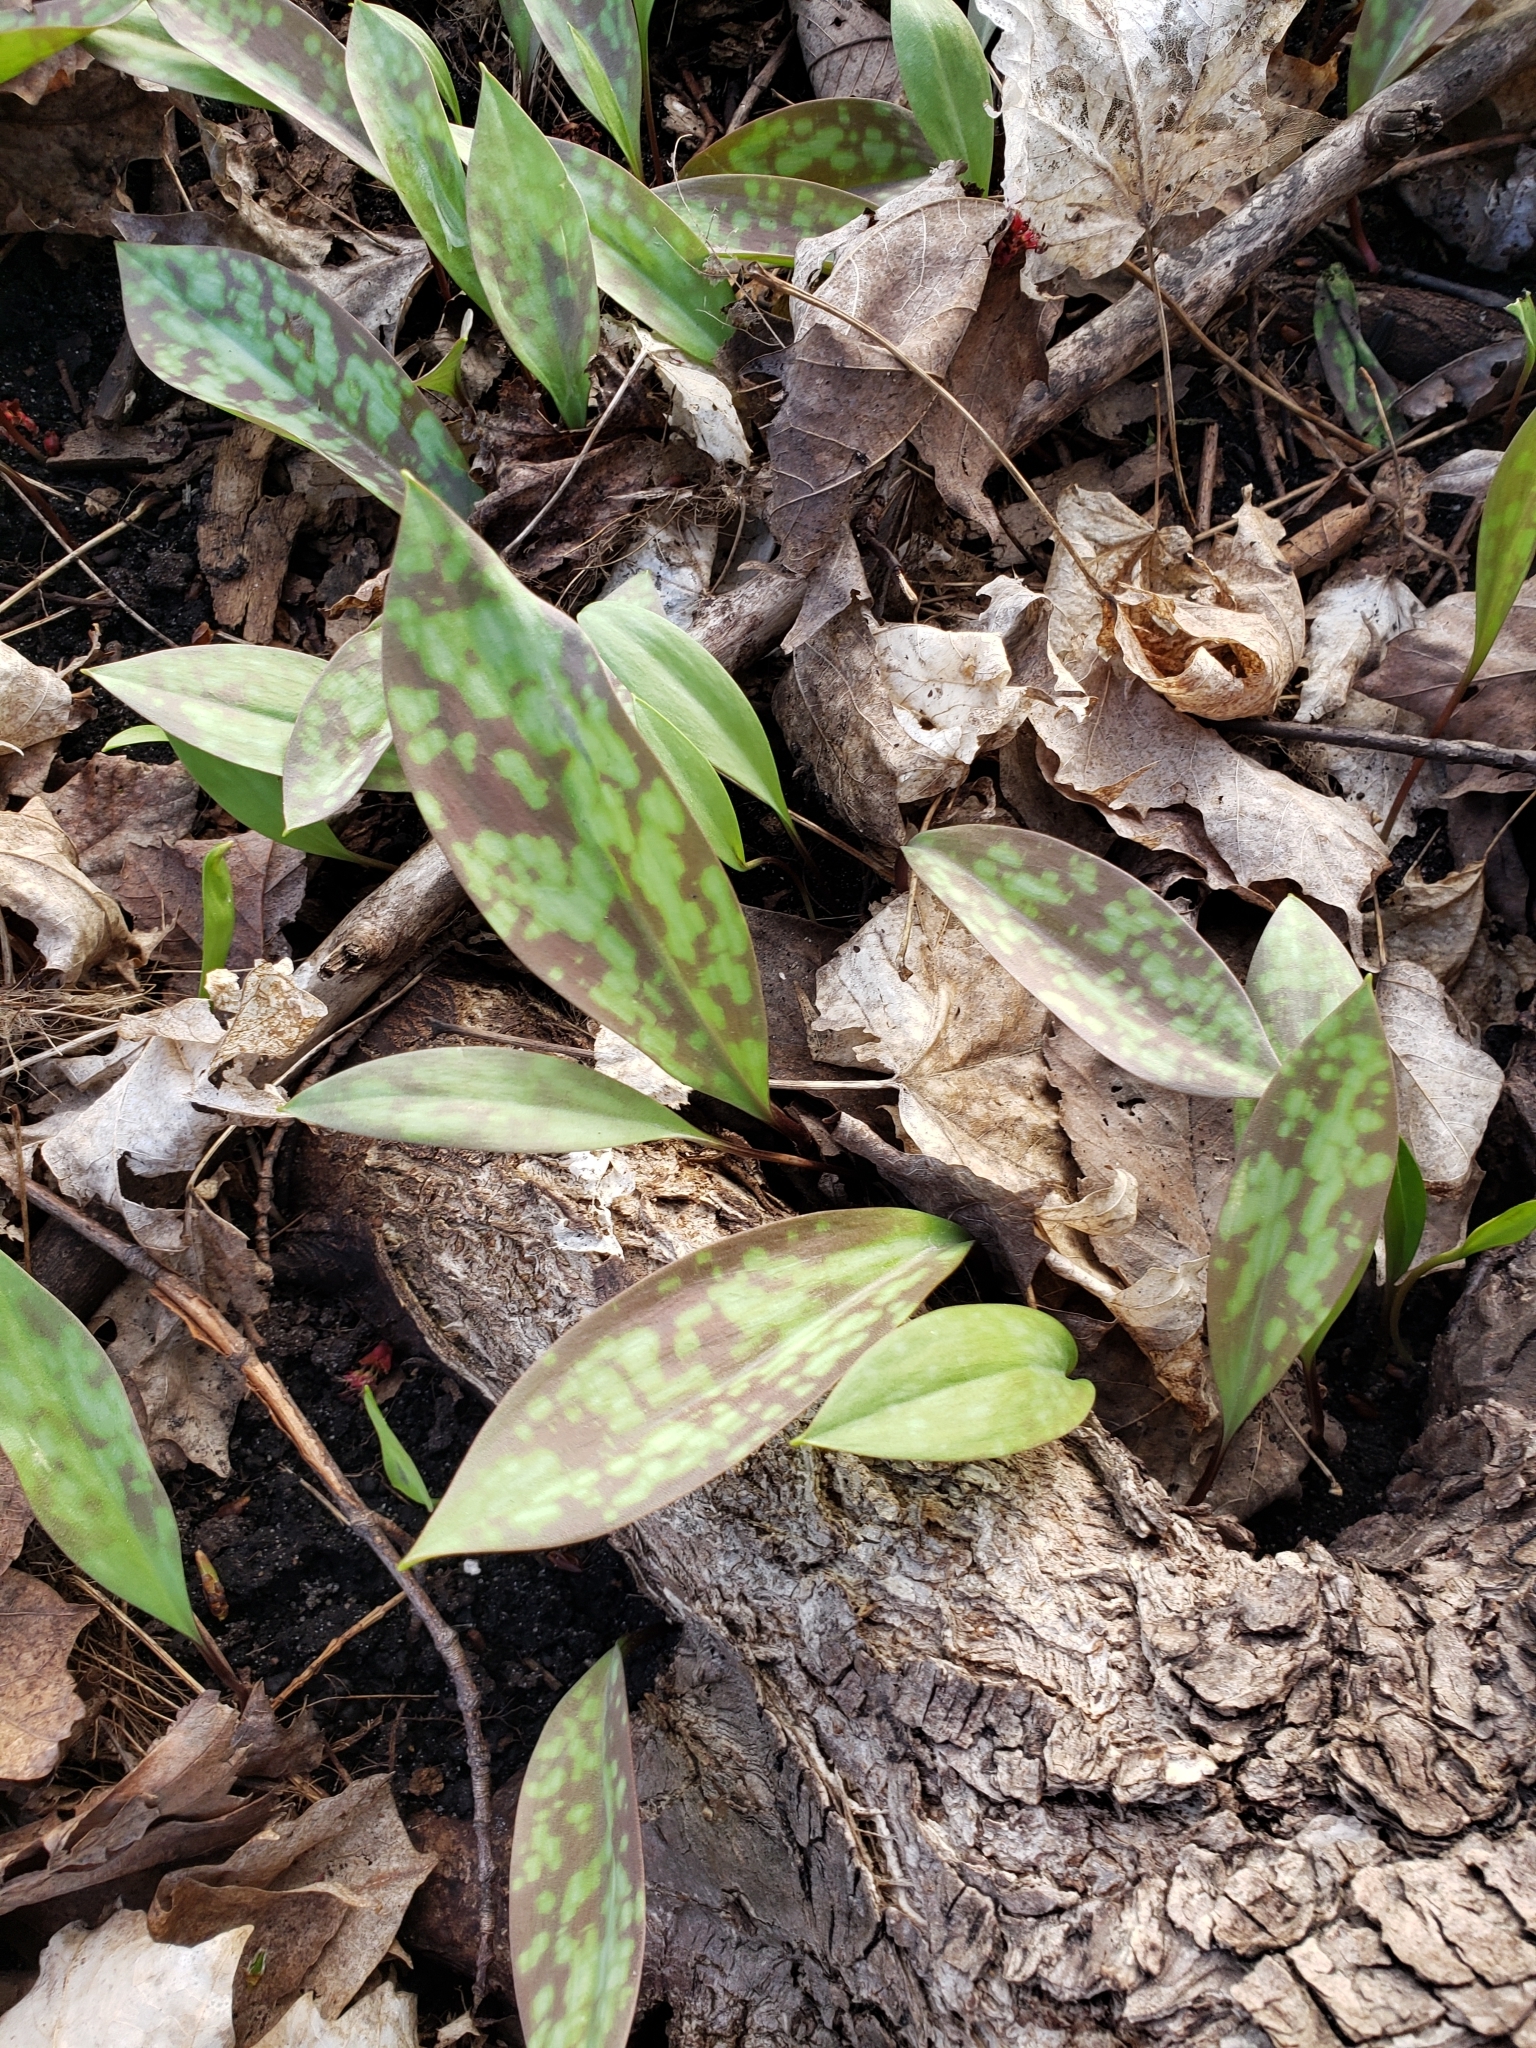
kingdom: Plantae
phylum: Tracheophyta
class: Liliopsida
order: Liliales
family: Liliaceae
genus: Erythronium
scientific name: Erythronium americanum
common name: Yellow adder's-tongue
